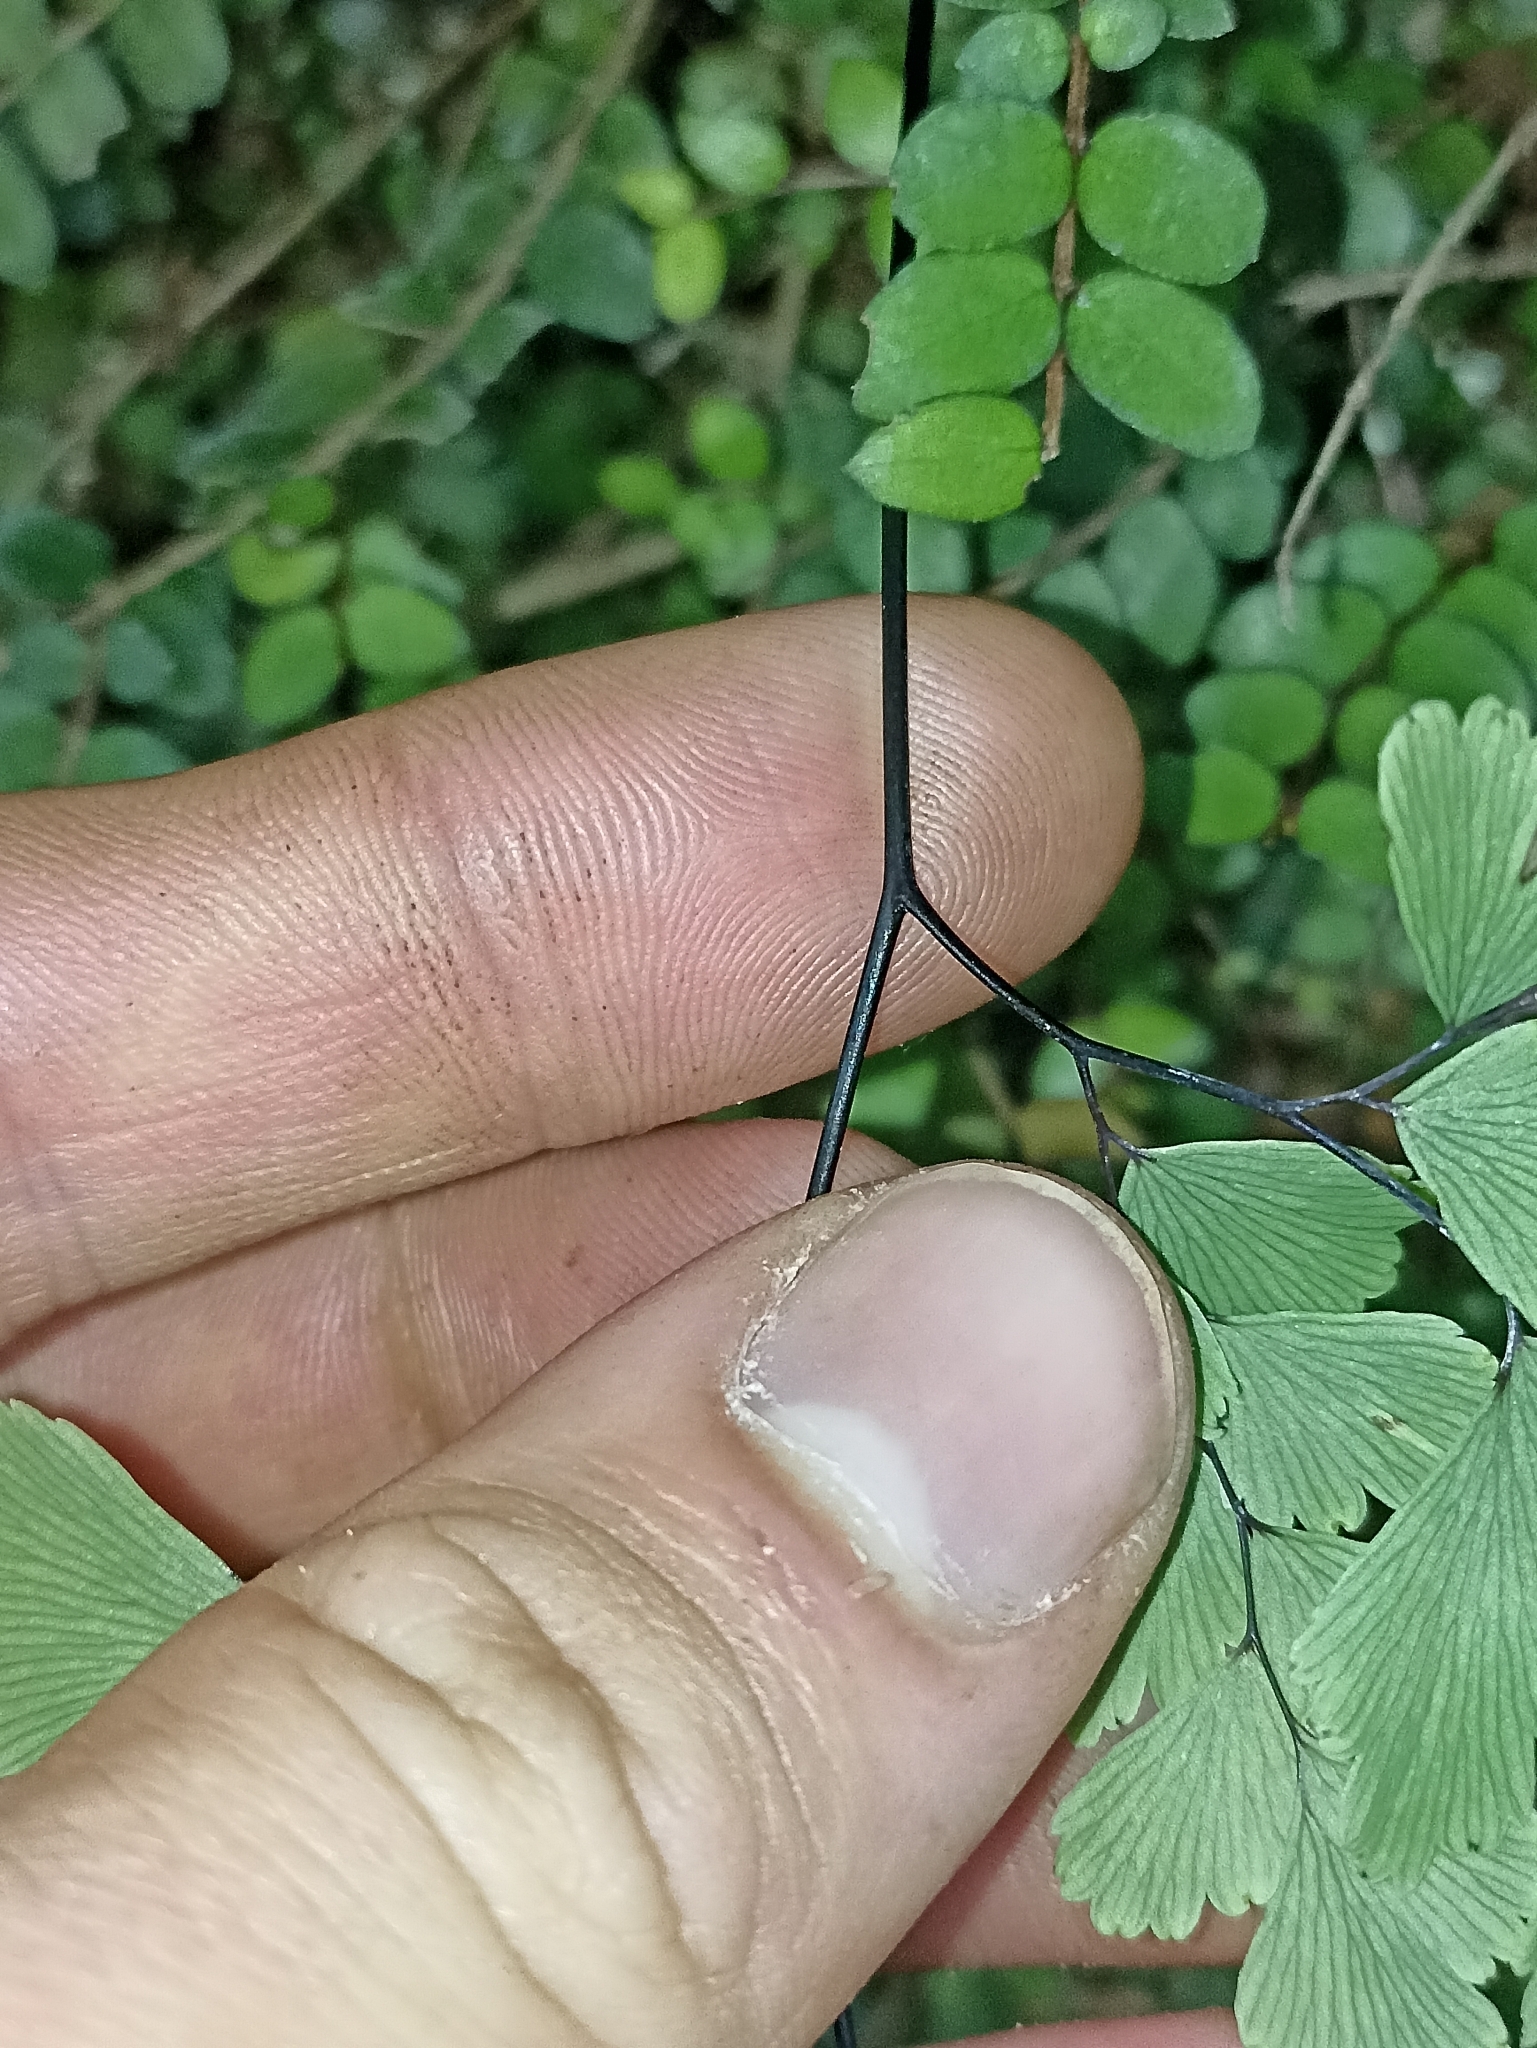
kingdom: Plantae
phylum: Tracheophyta
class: Polypodiopsida
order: Polypodiales
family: Pteridaceae
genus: Adiantum
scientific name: Adiantum cunninghamii
